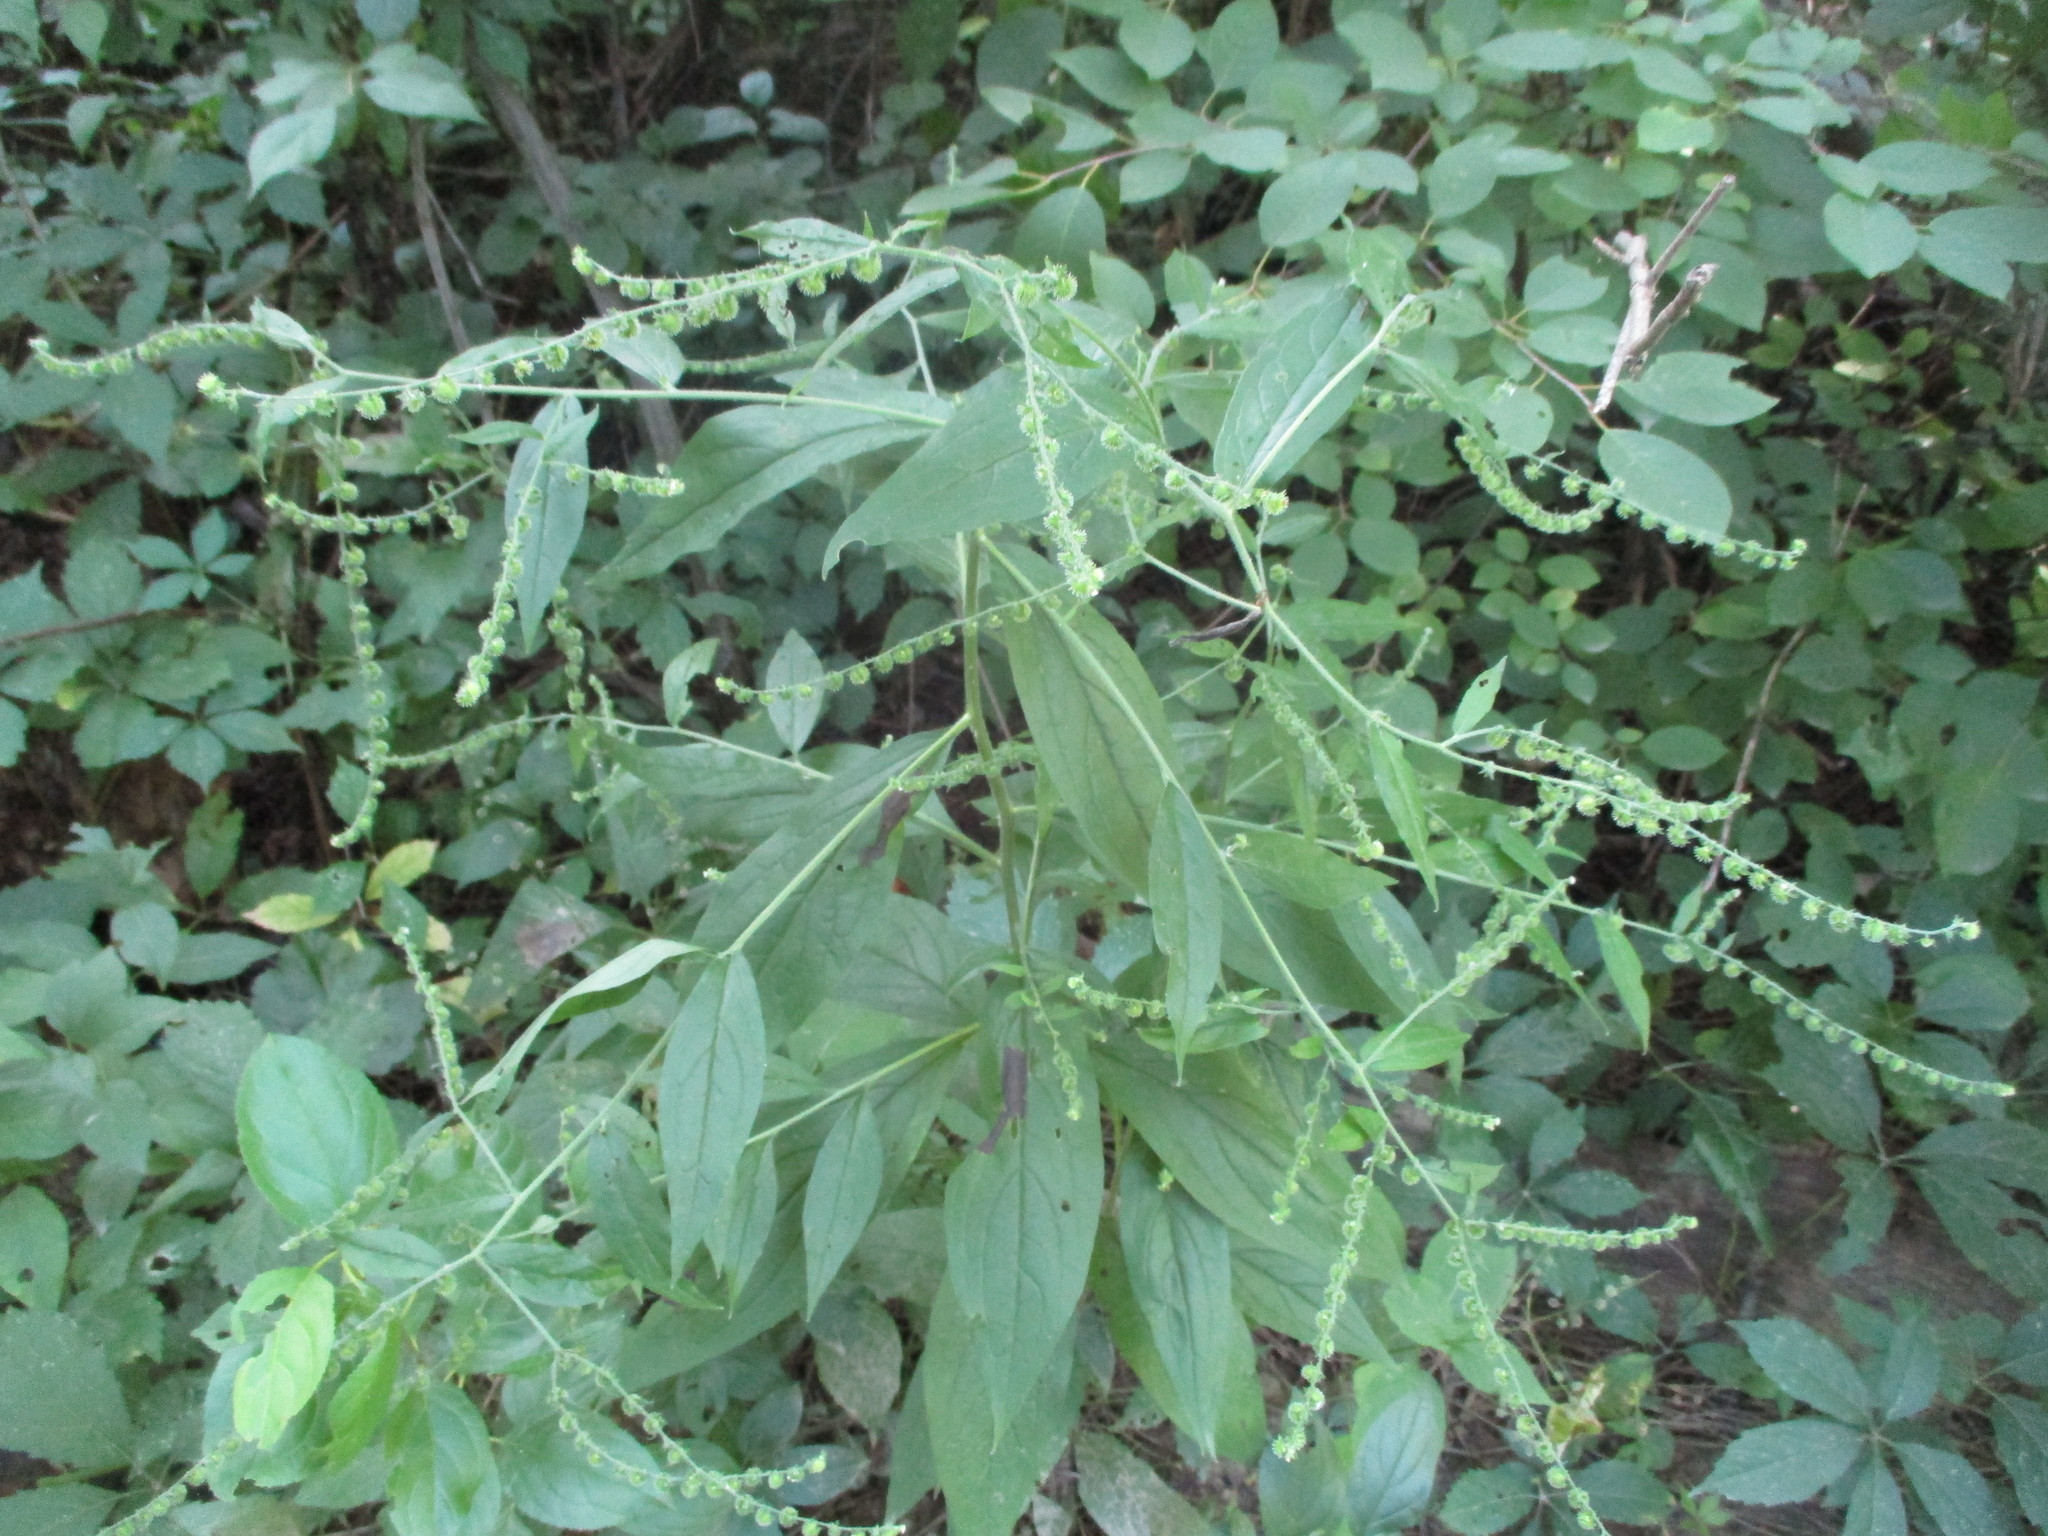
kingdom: Plantae
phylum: Tracheophyta
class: Magnoliopsida
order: Boraginales
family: Boraginaceae
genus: Hackelia
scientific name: Hackelia virginiana
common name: Beggar's-lice
